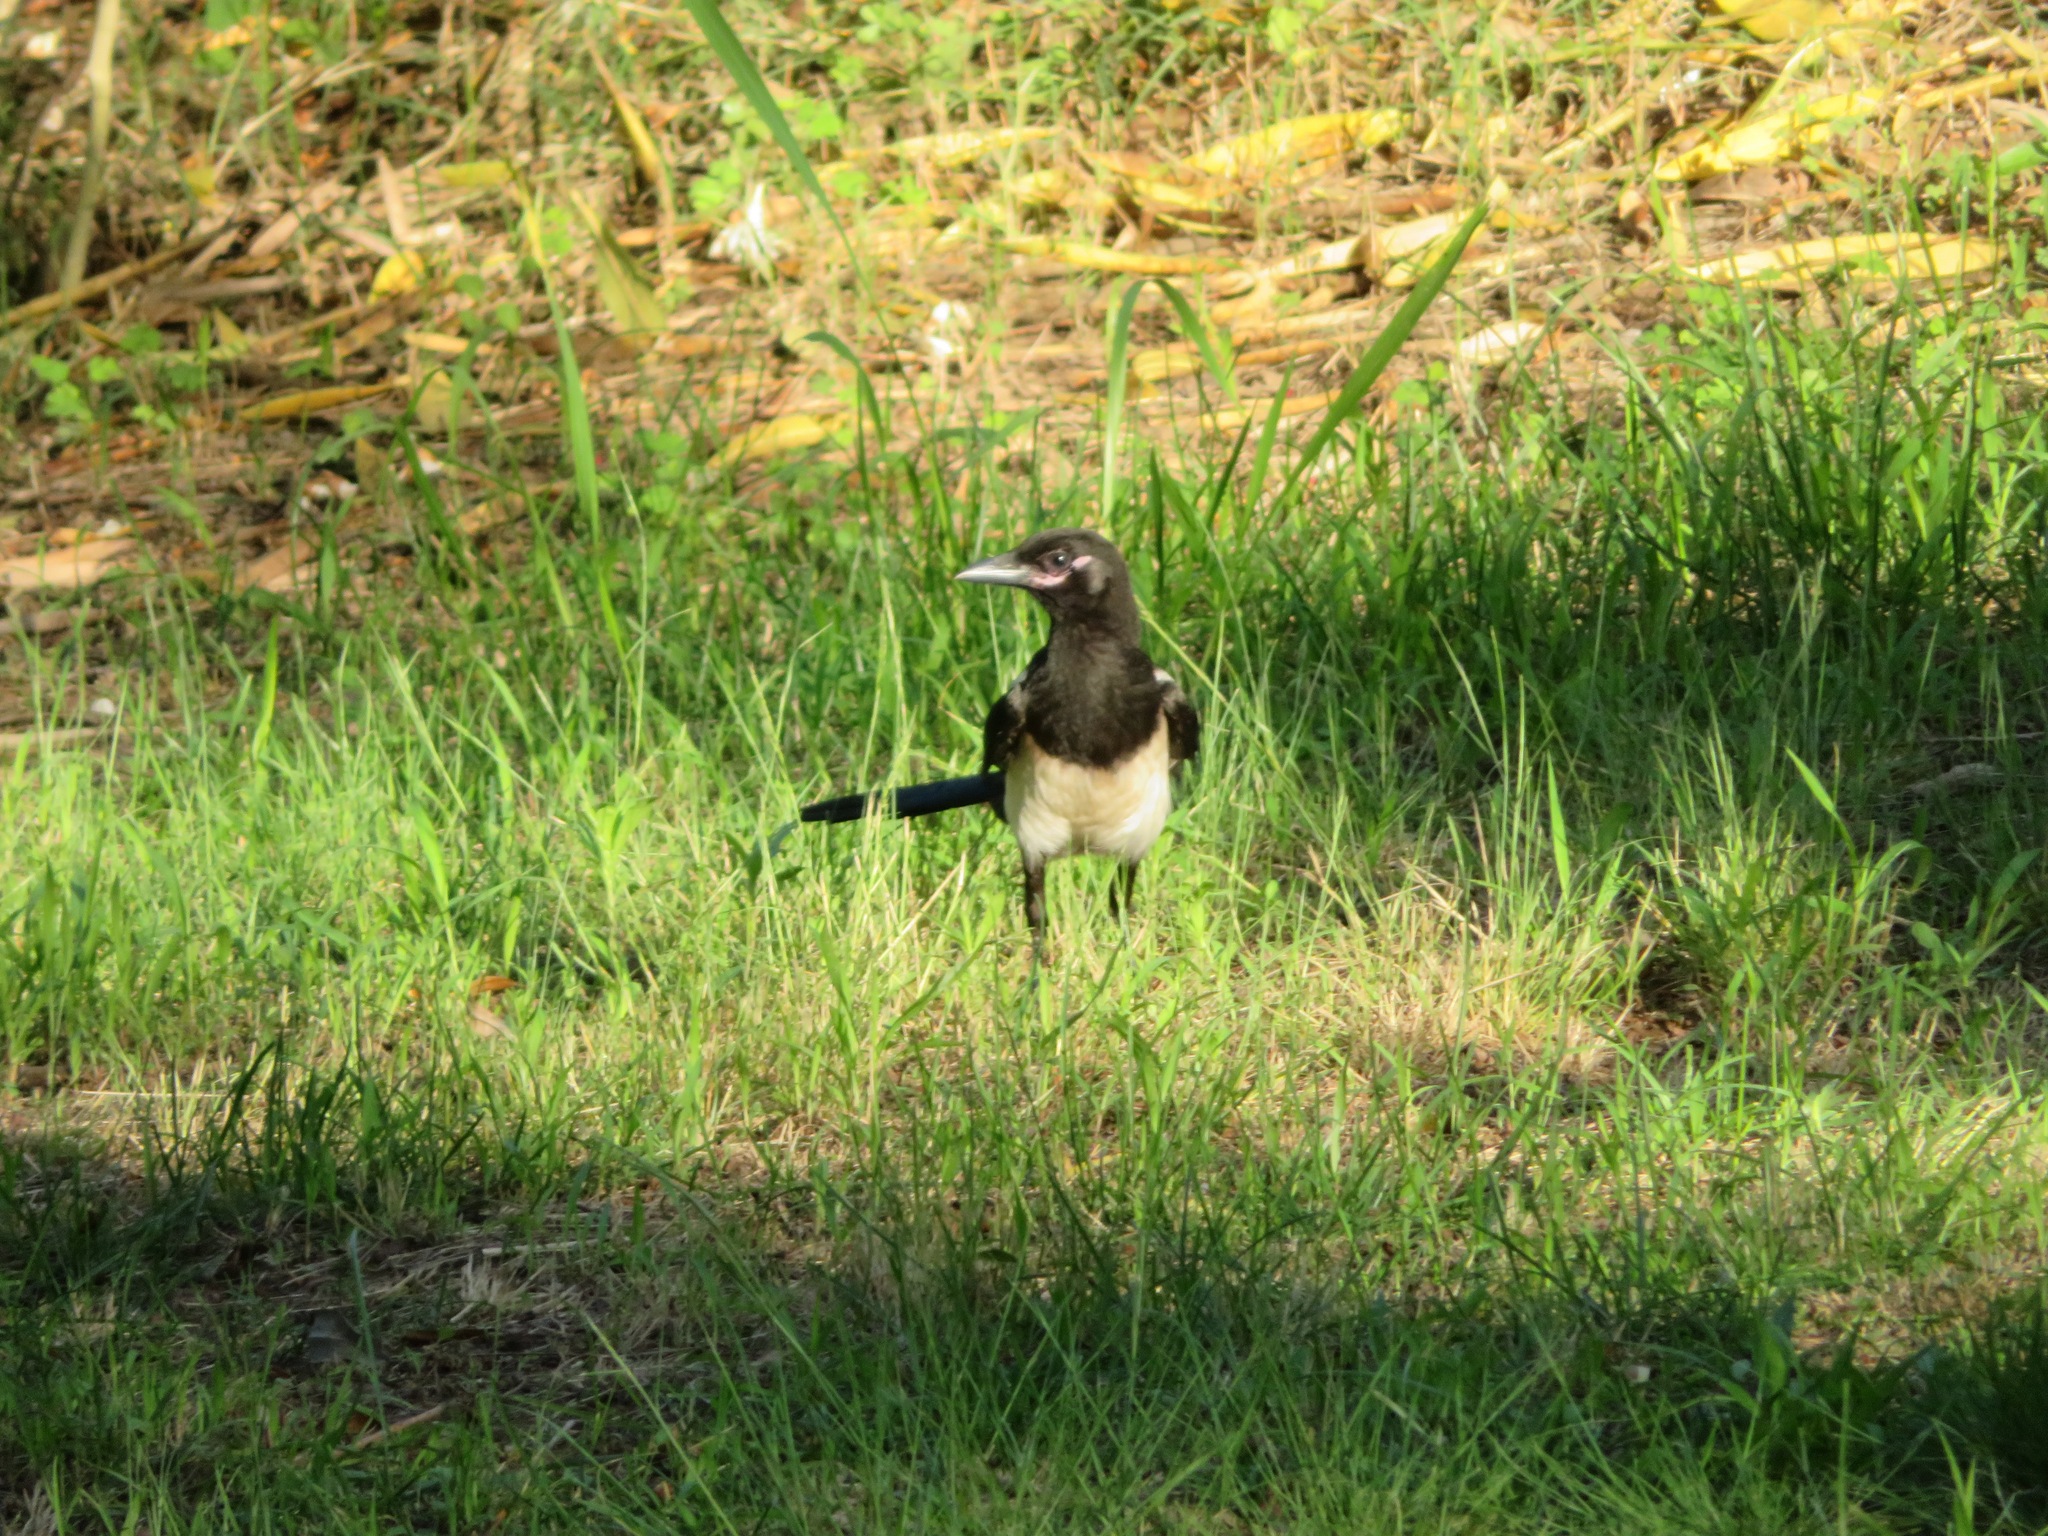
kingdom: Animalia
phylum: Chordata
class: Aves
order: Passeriformes
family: Corvidae
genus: Pica
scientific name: Pica serica
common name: Oriental magpie
